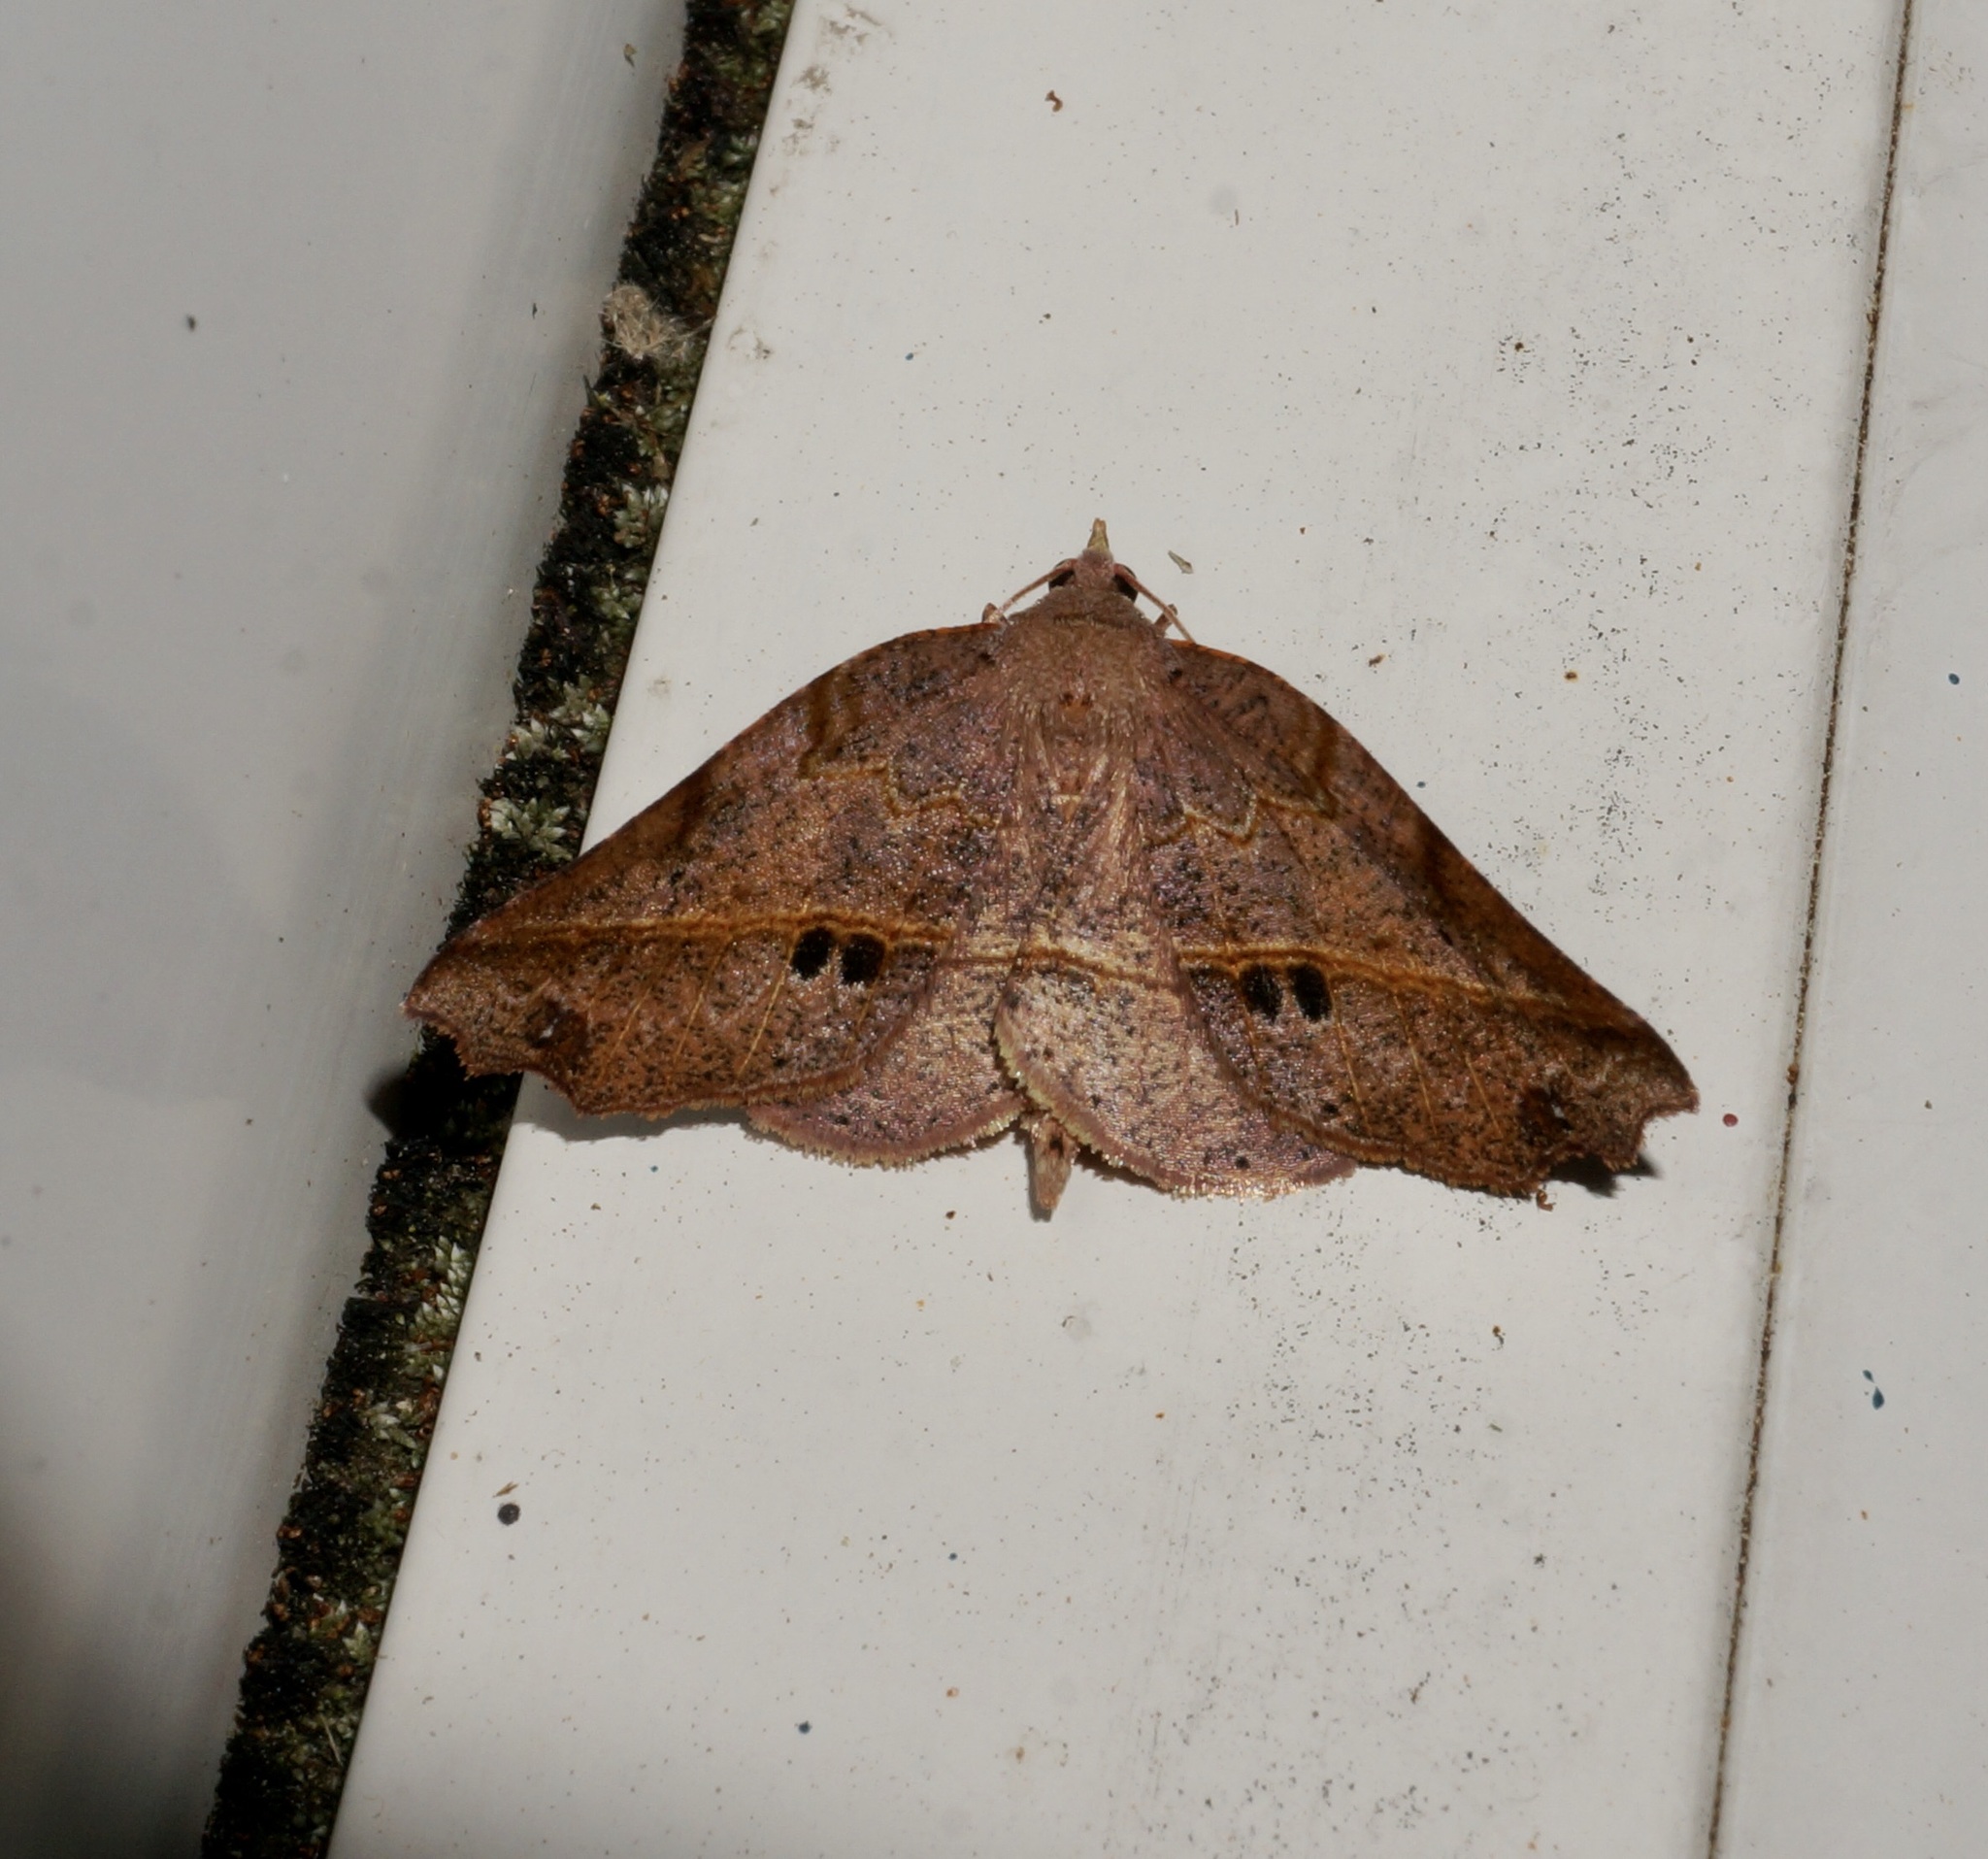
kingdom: Animalia
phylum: Arthropoda
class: Insecta
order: Lepidoptera
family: Geometridae
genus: Ischalis
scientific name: Ischalis gallaria
